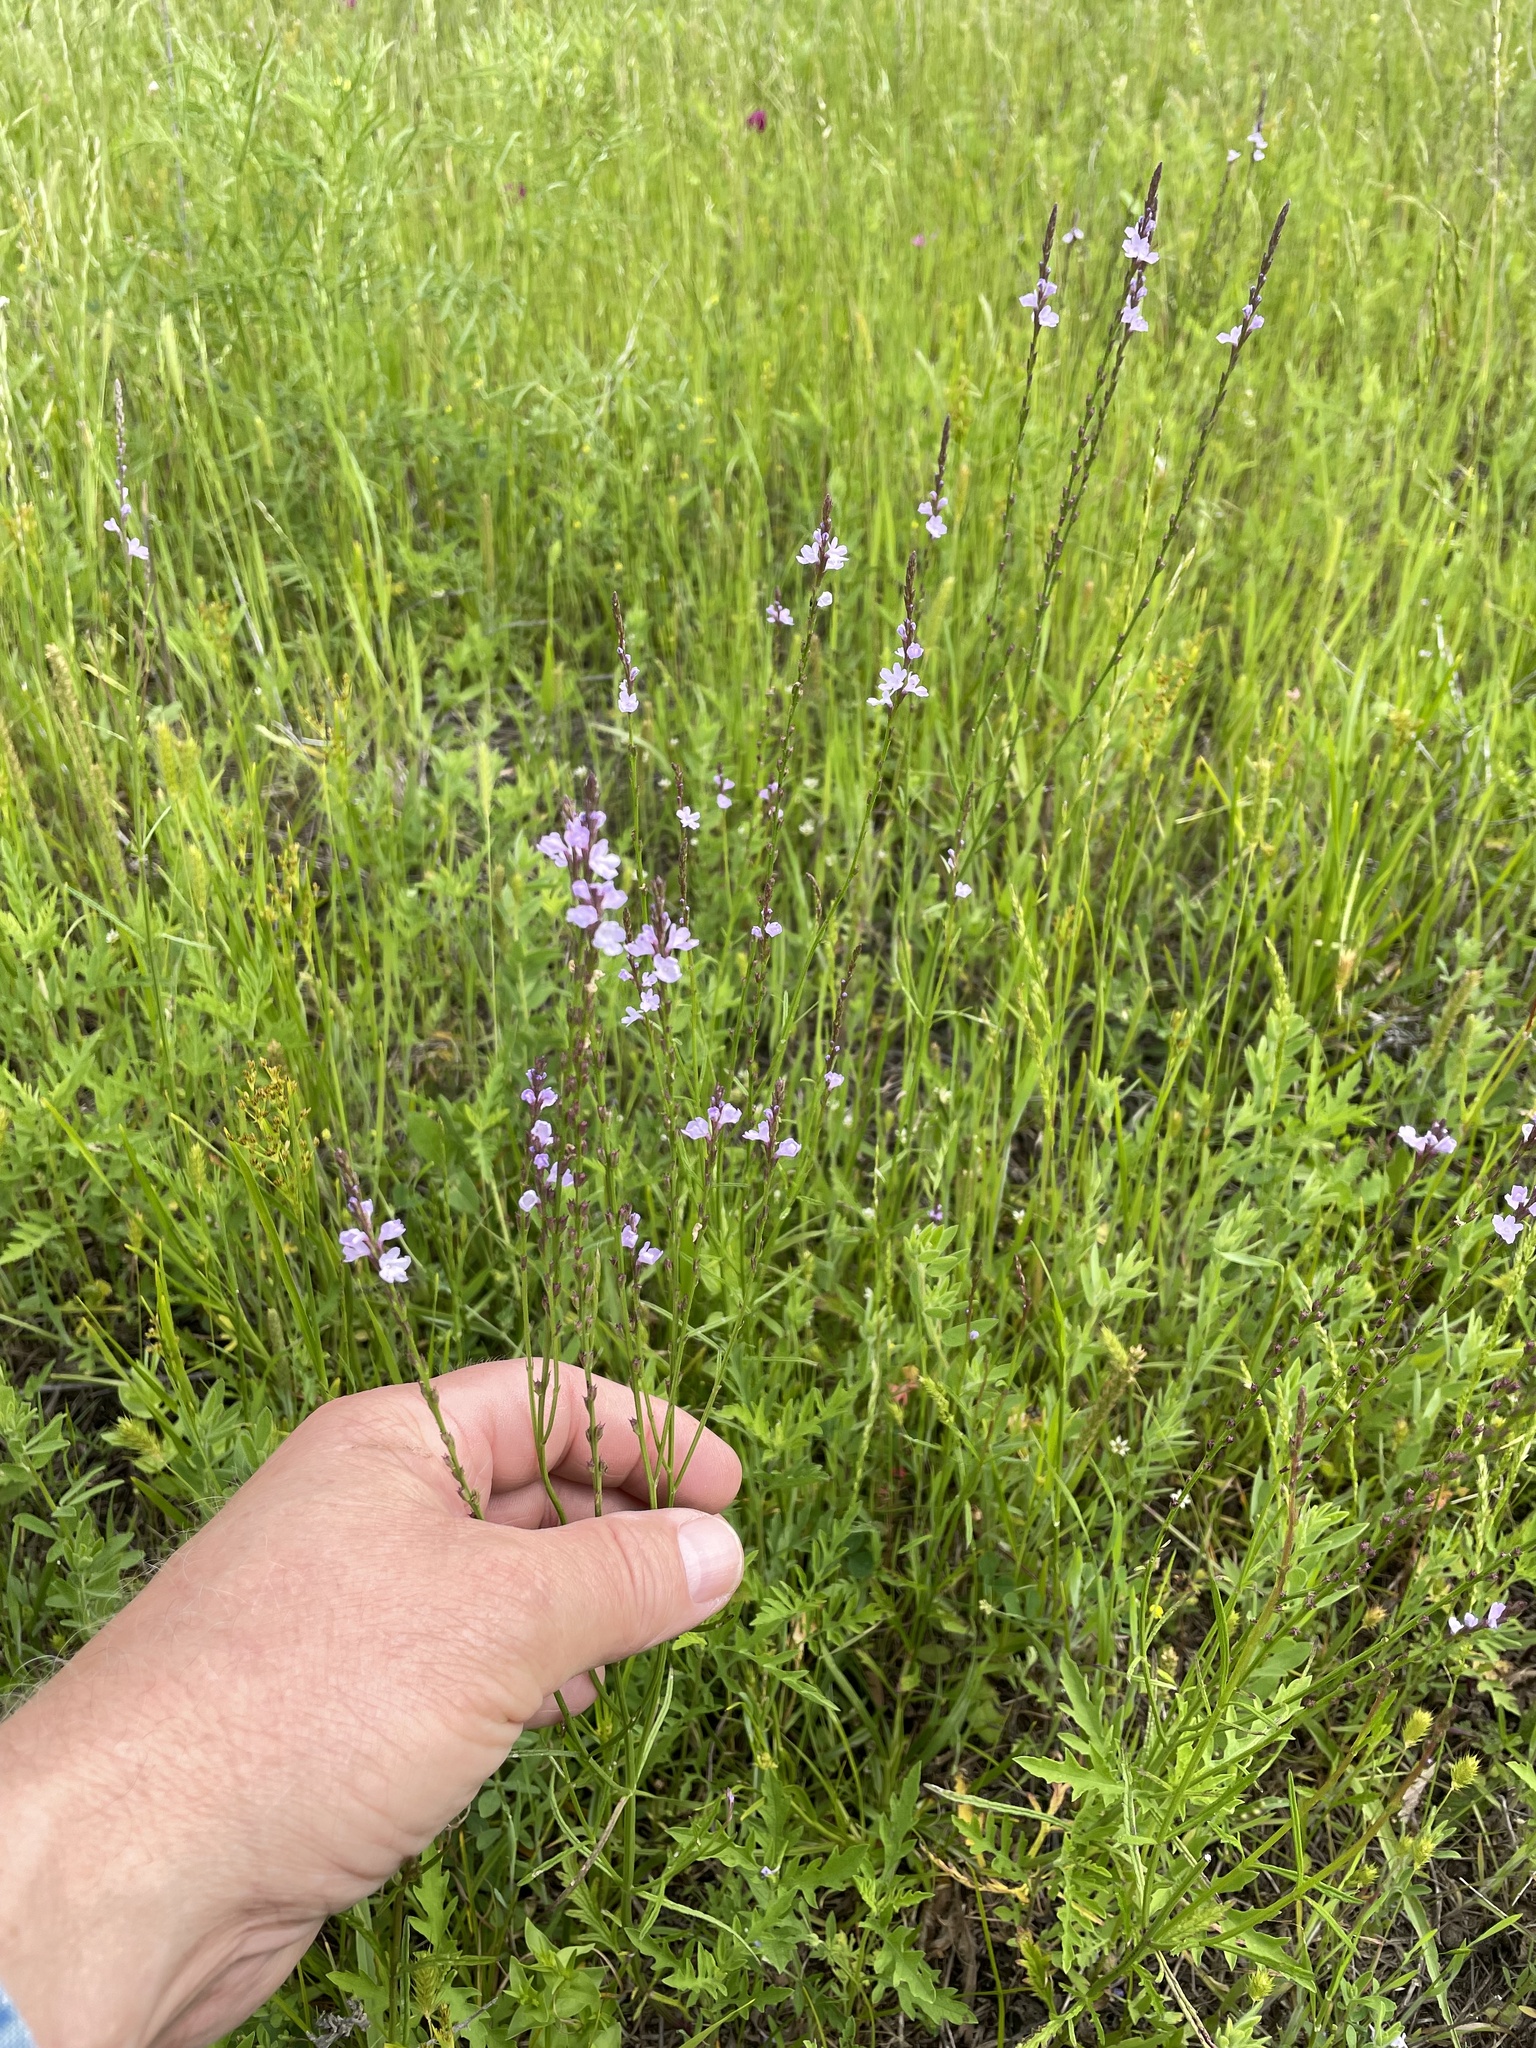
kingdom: Plantae
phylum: Tracheophyta
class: Magnoliopsida
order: Lamiales
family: Verbenaceae
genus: Verbena
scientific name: Verbena halei
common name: Texas vervain
